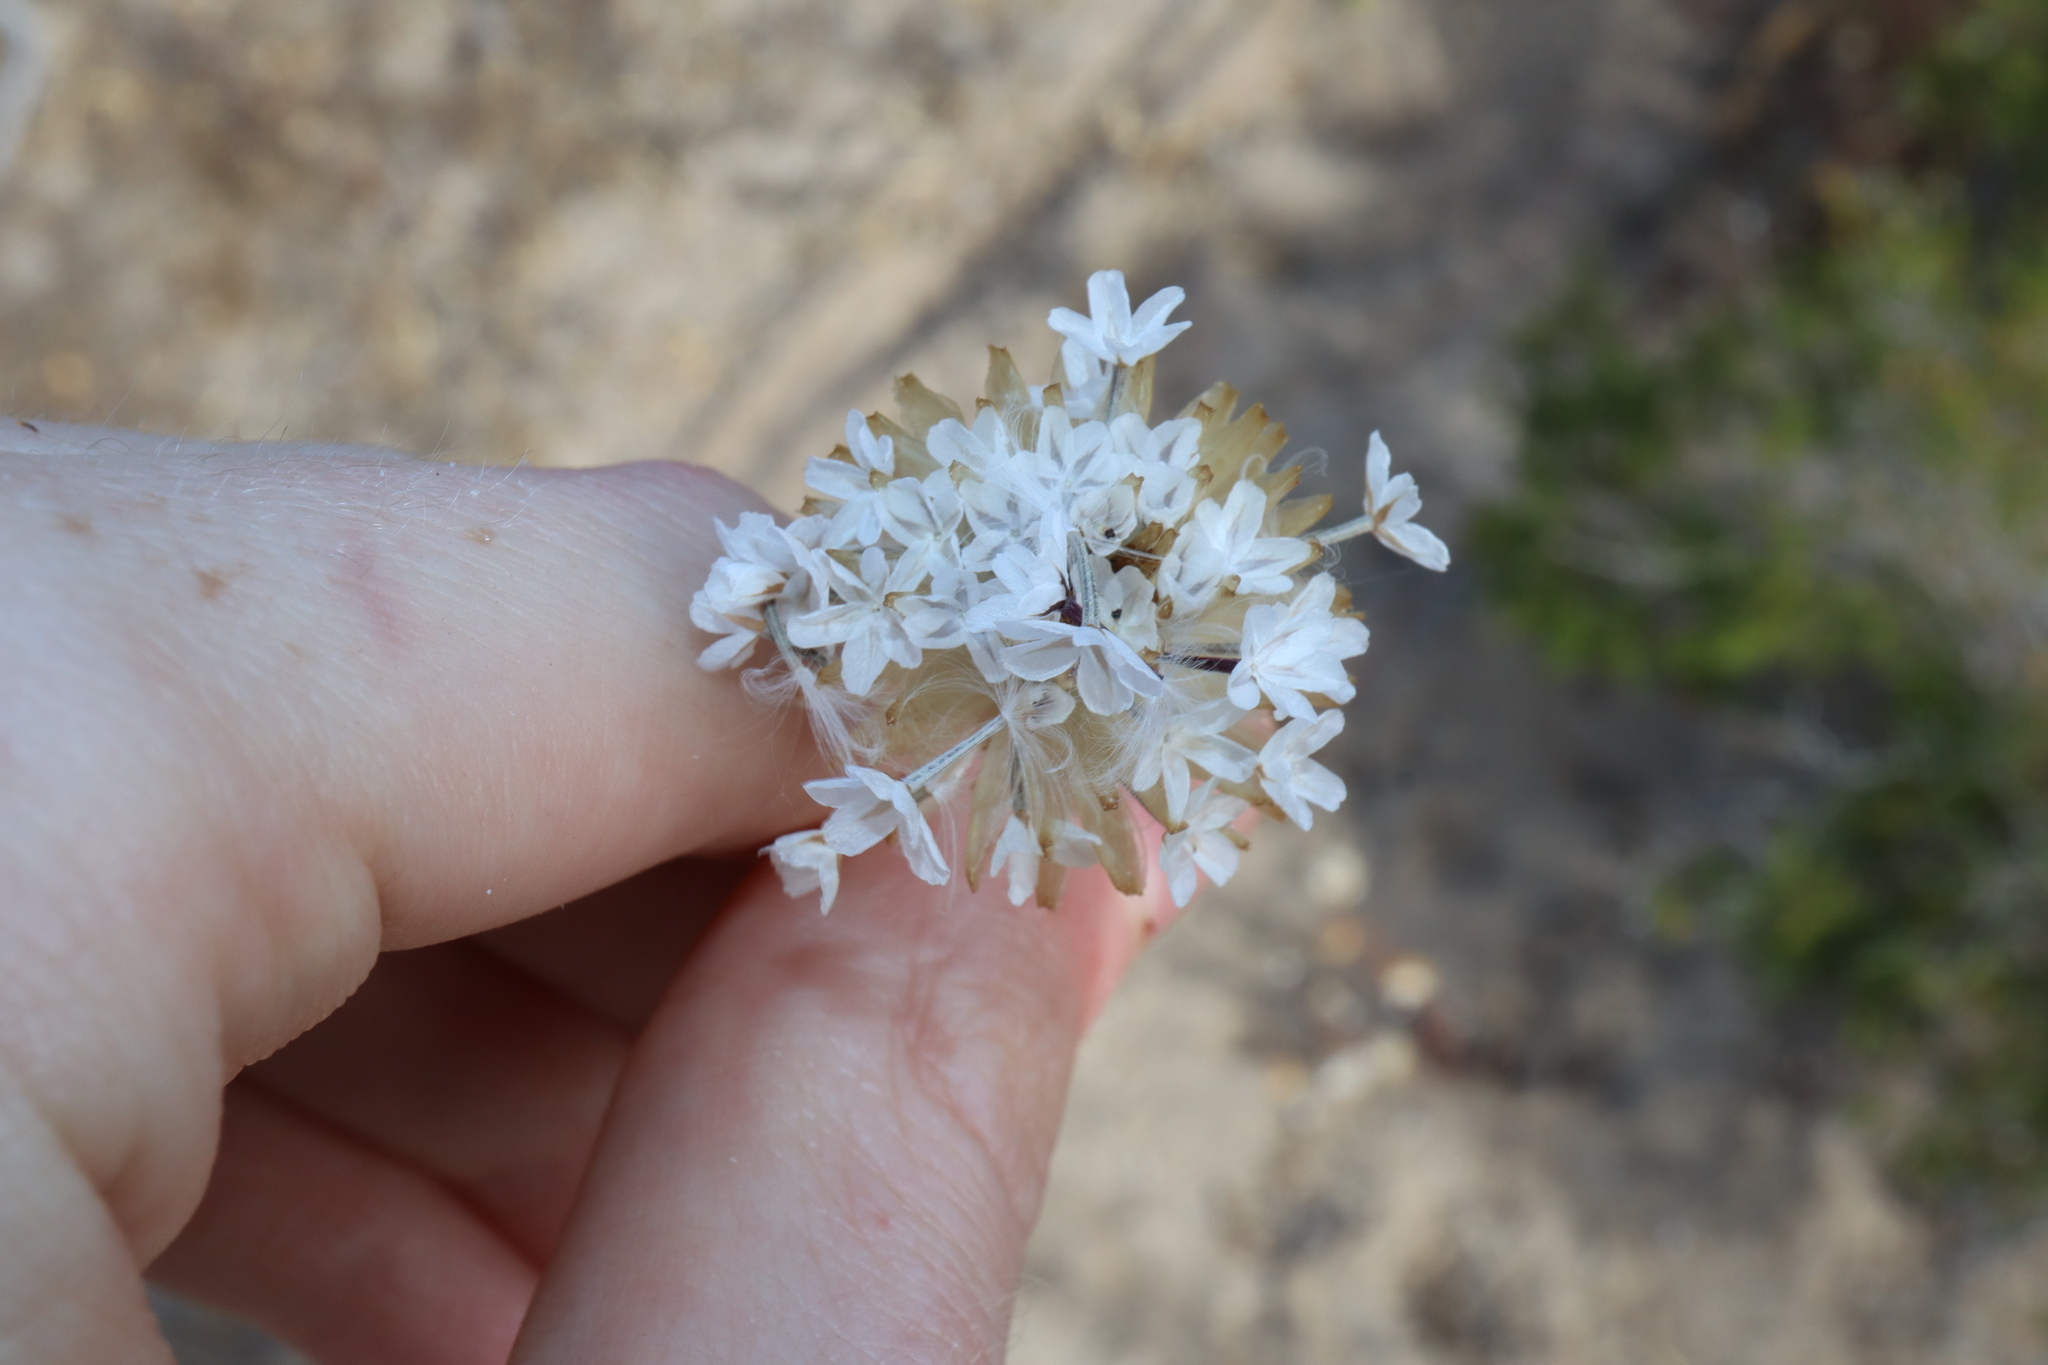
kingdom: Plantae
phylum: Tracheophyta
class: Magnoliopsida
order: Asterales
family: Asteraceae
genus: Ursinia
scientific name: Ursinia anthemoides
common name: Ursinia
